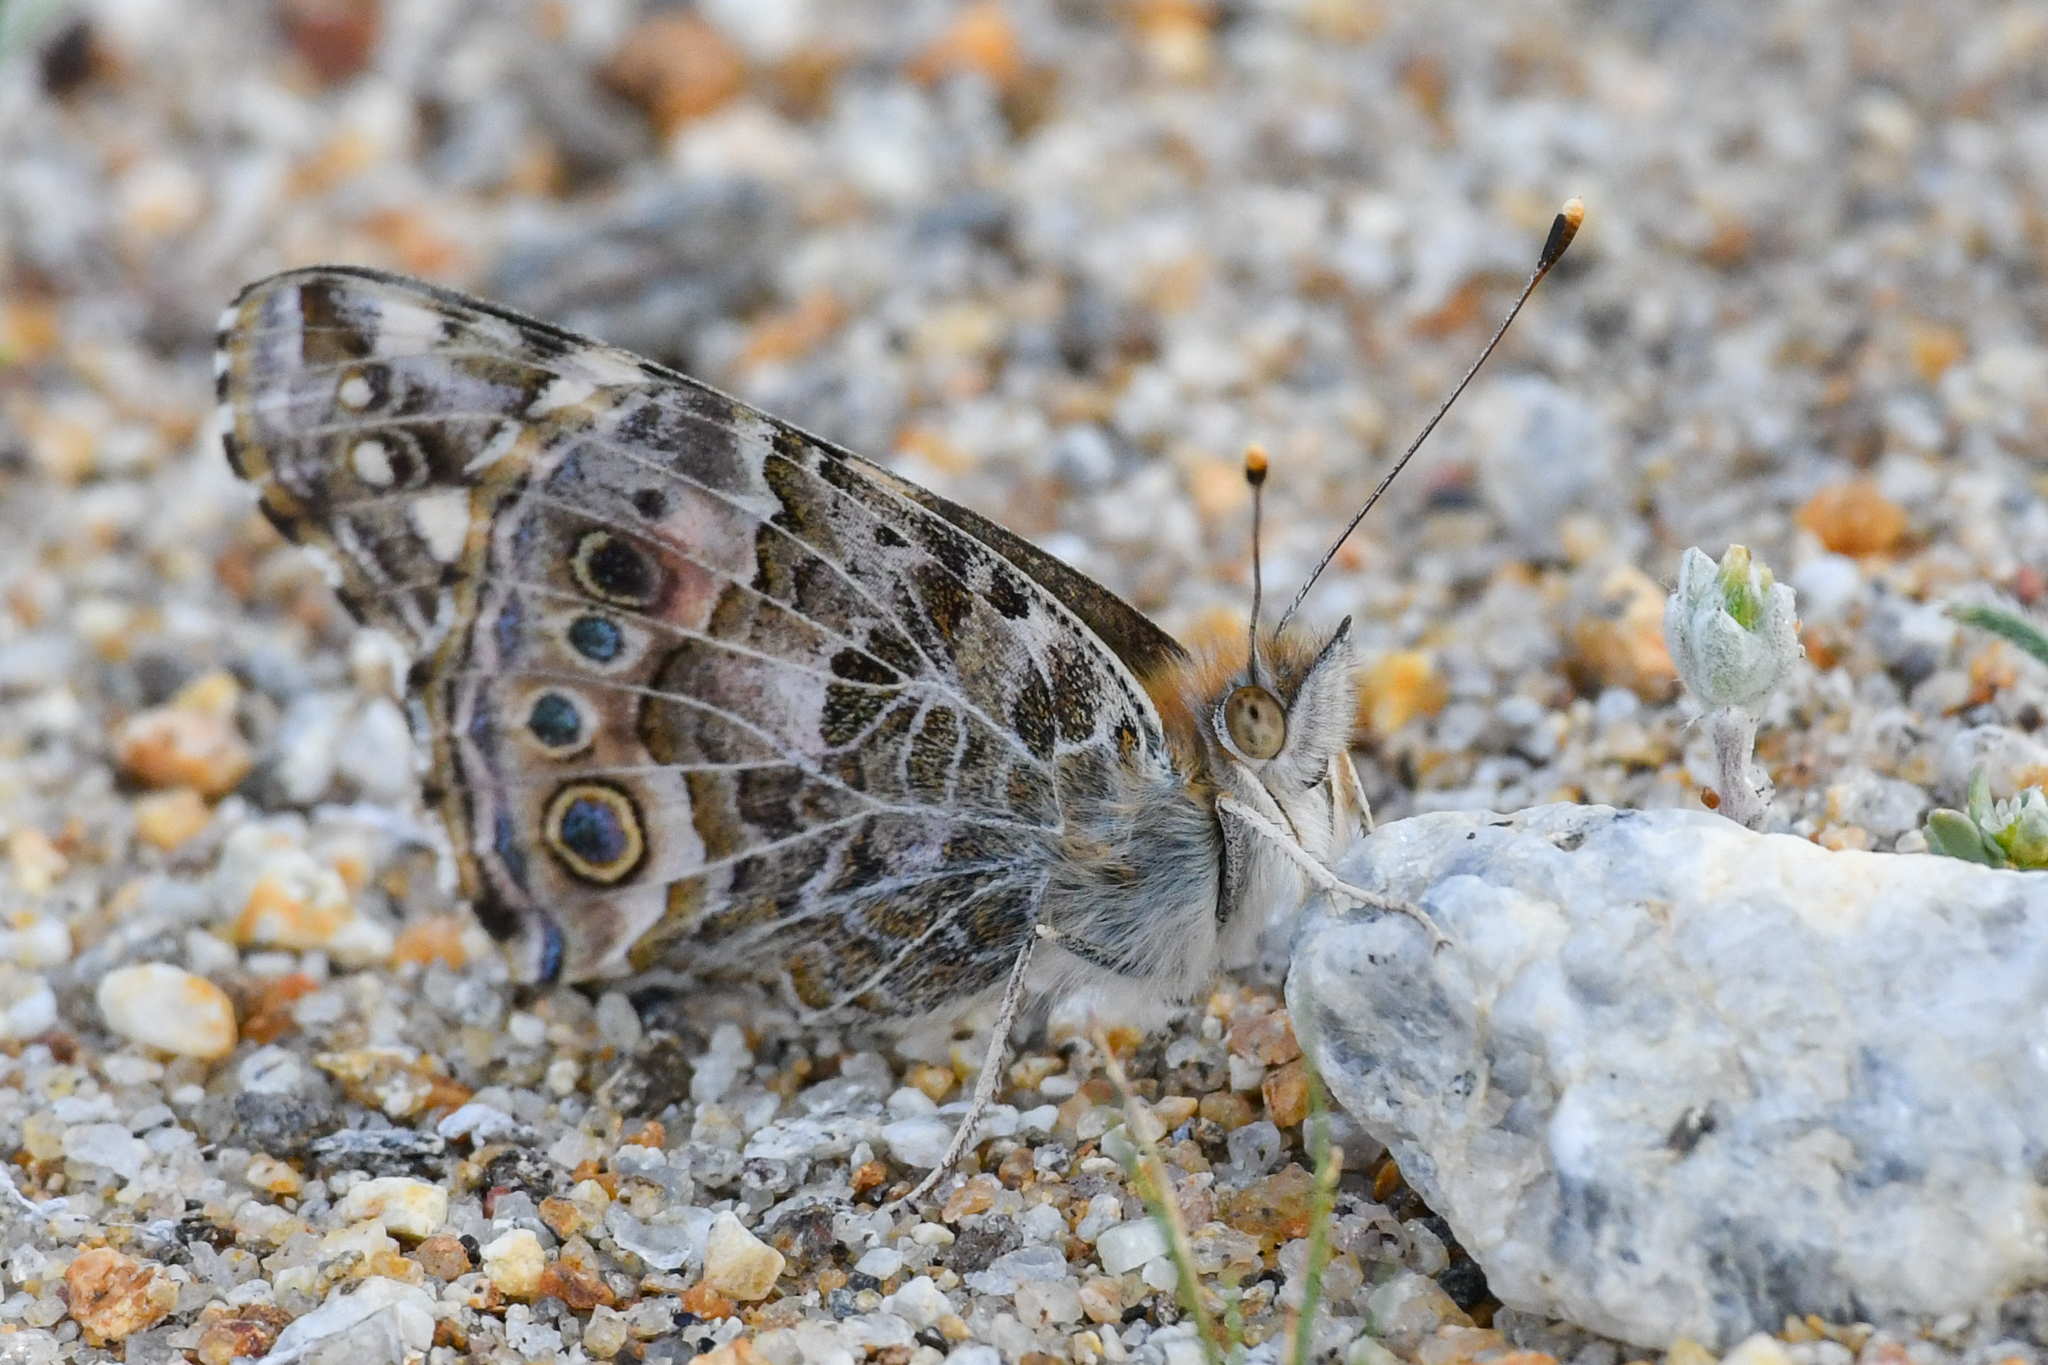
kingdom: Animalia
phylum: Arthropoda
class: Insecta
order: Lepidoptera
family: Nymphalidae
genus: Vanessa
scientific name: Vanessa cardui
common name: Painted lady
